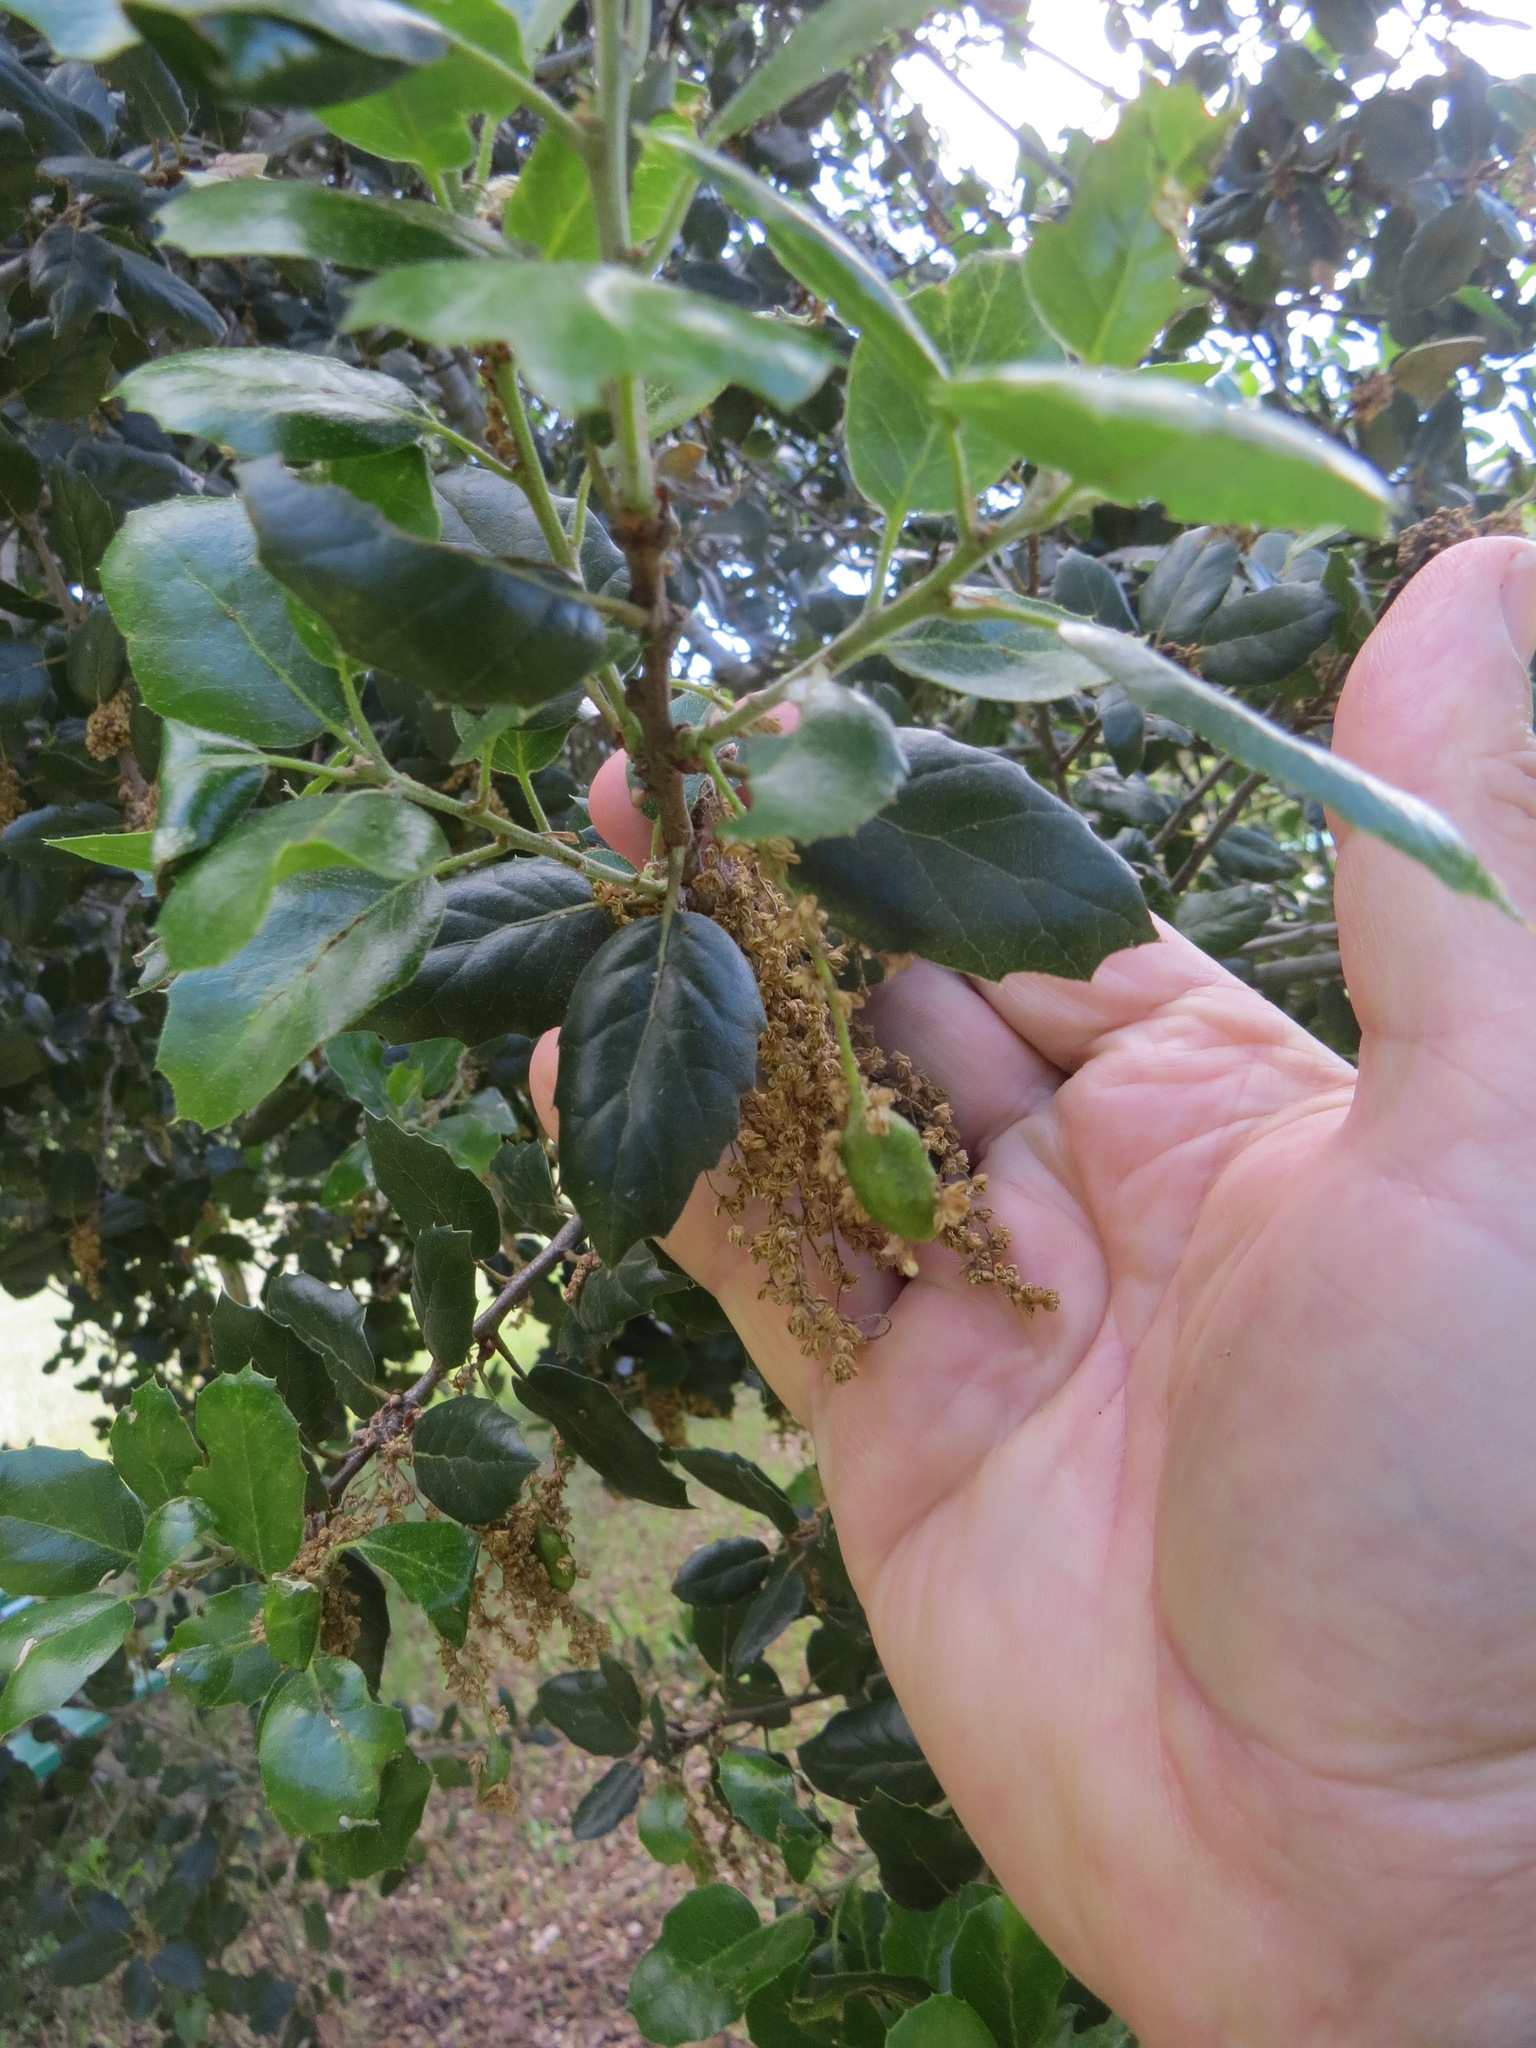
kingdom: Animalia
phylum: Arthropoda
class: Insecta
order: Hymenoptera
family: Cynipidae
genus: Callirhytis
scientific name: Callirhytis
